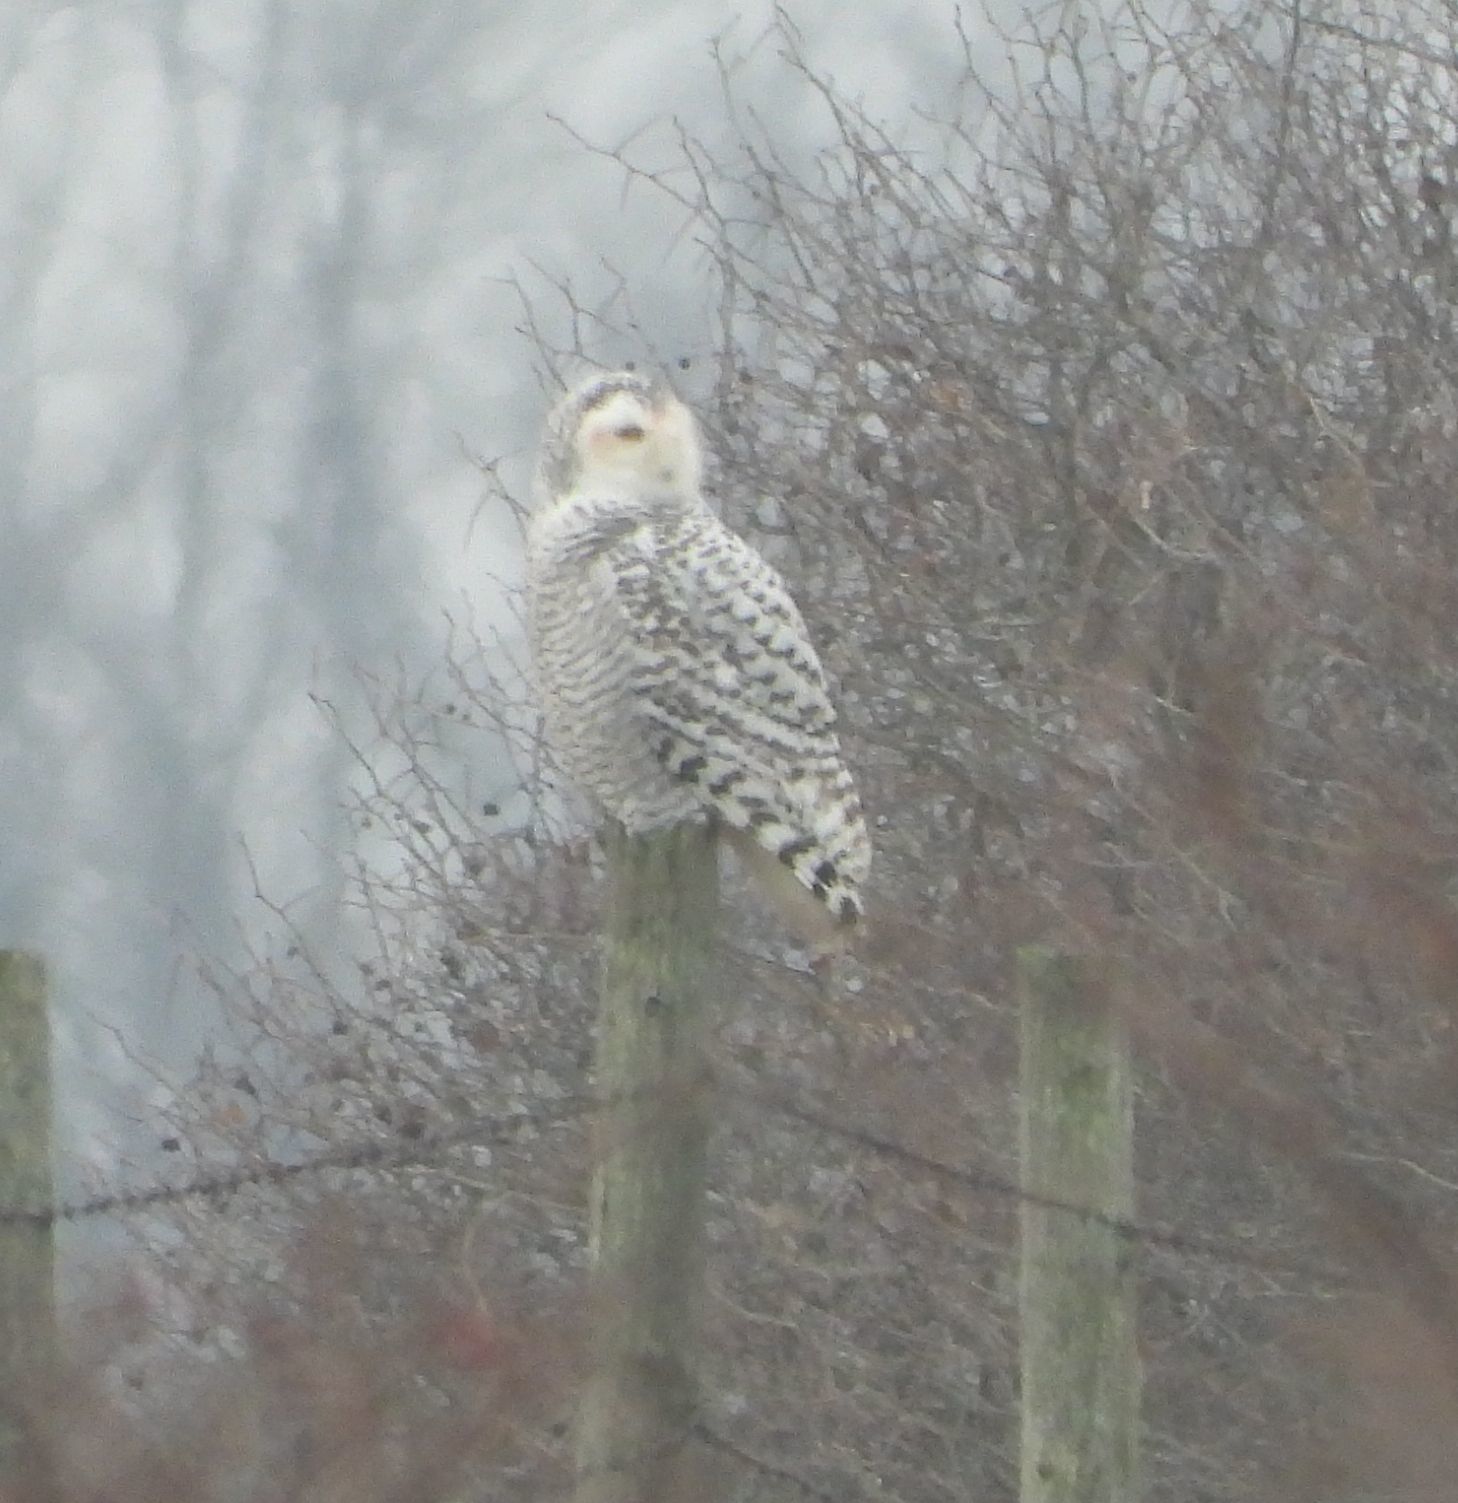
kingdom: Animalia
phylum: Chordata
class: Aves
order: Strigiformes
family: Strigidae
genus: Bubo
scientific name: Bubo scandiacus
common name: Snowy owl
